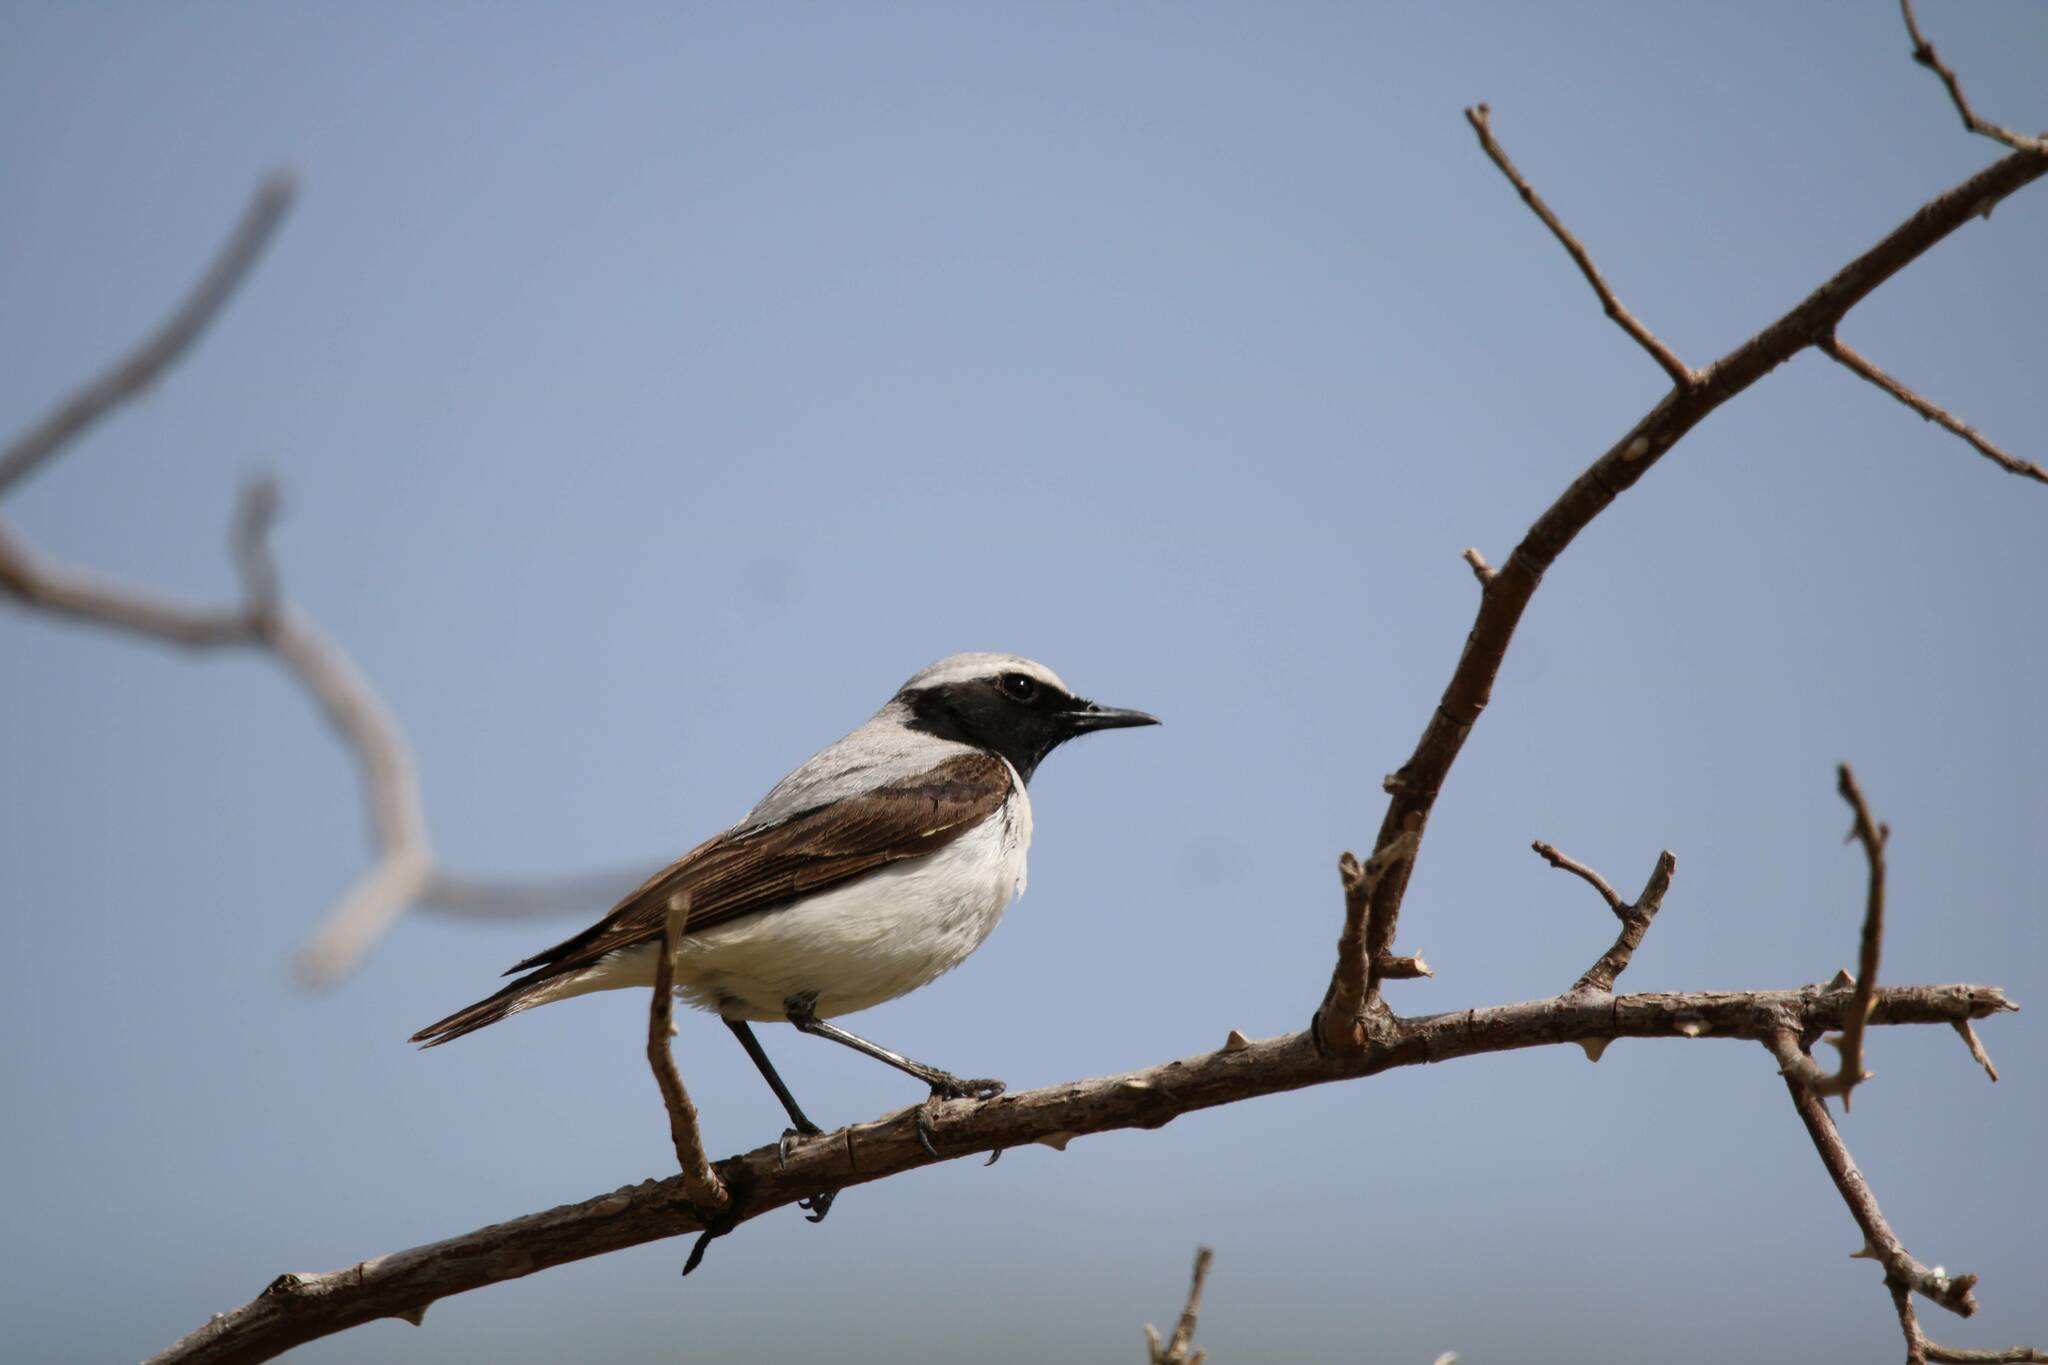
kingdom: Animalia
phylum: Chordata
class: Aves
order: Passeriformes
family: Muscicapidae
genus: Oenanthe
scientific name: Oenanthe oenanthe
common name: Northern wheatear
